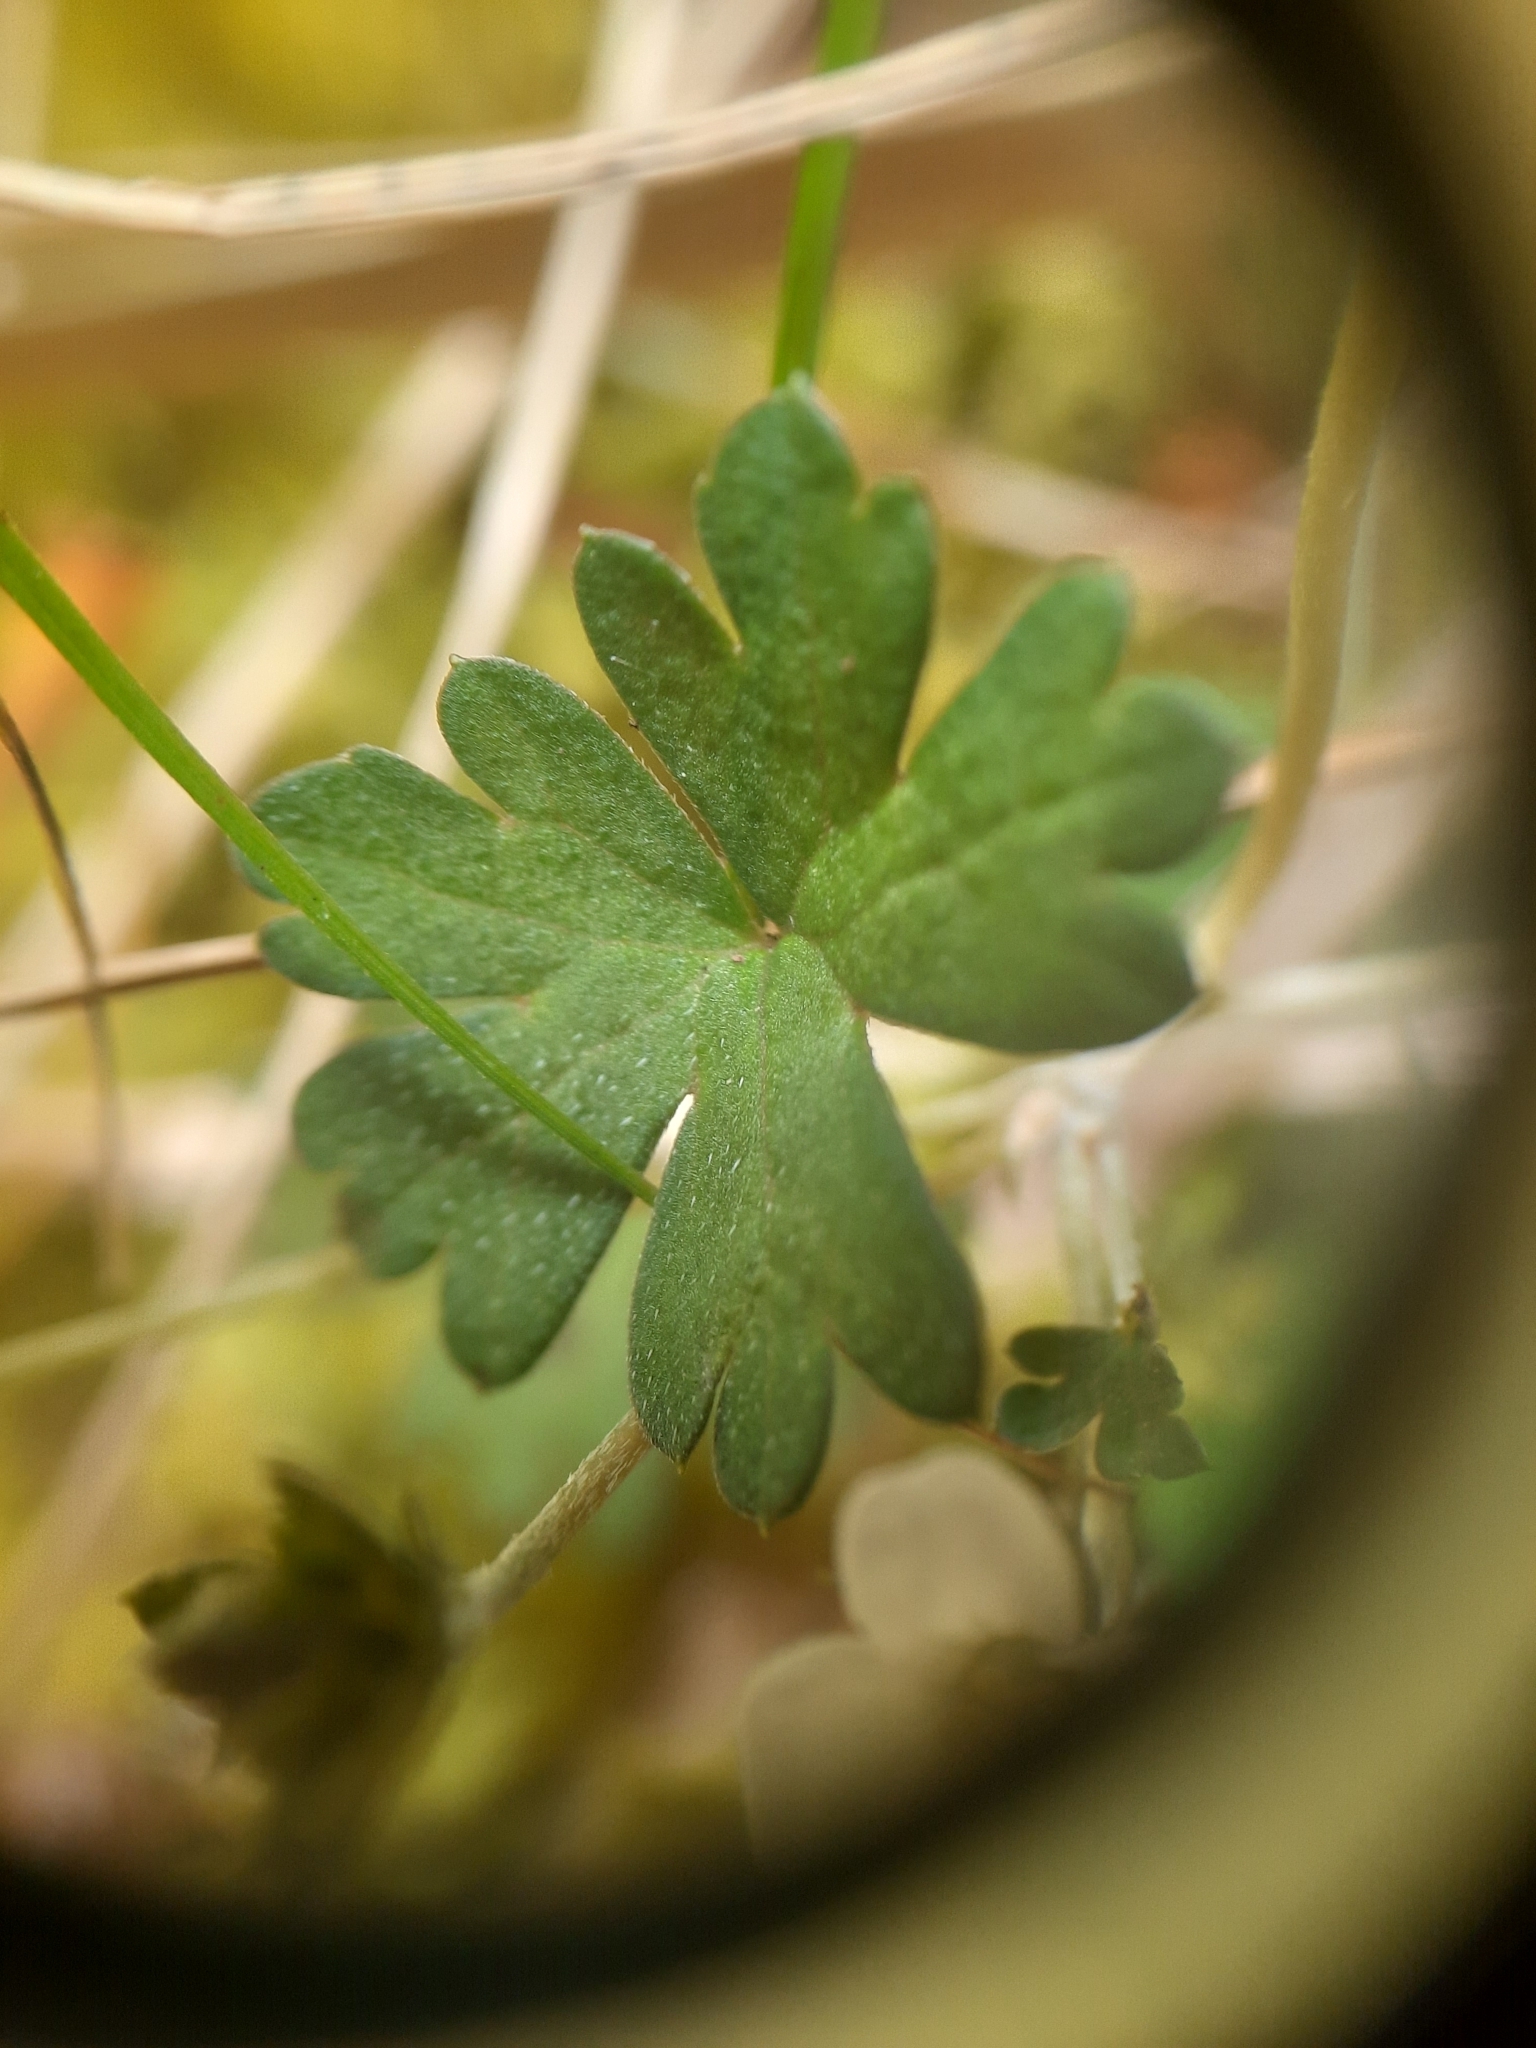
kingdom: Plantae
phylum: Tracheophyta
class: Magnoliopsida
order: Geraniales
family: Geraniaceae
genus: Geranium
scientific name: Geranium
